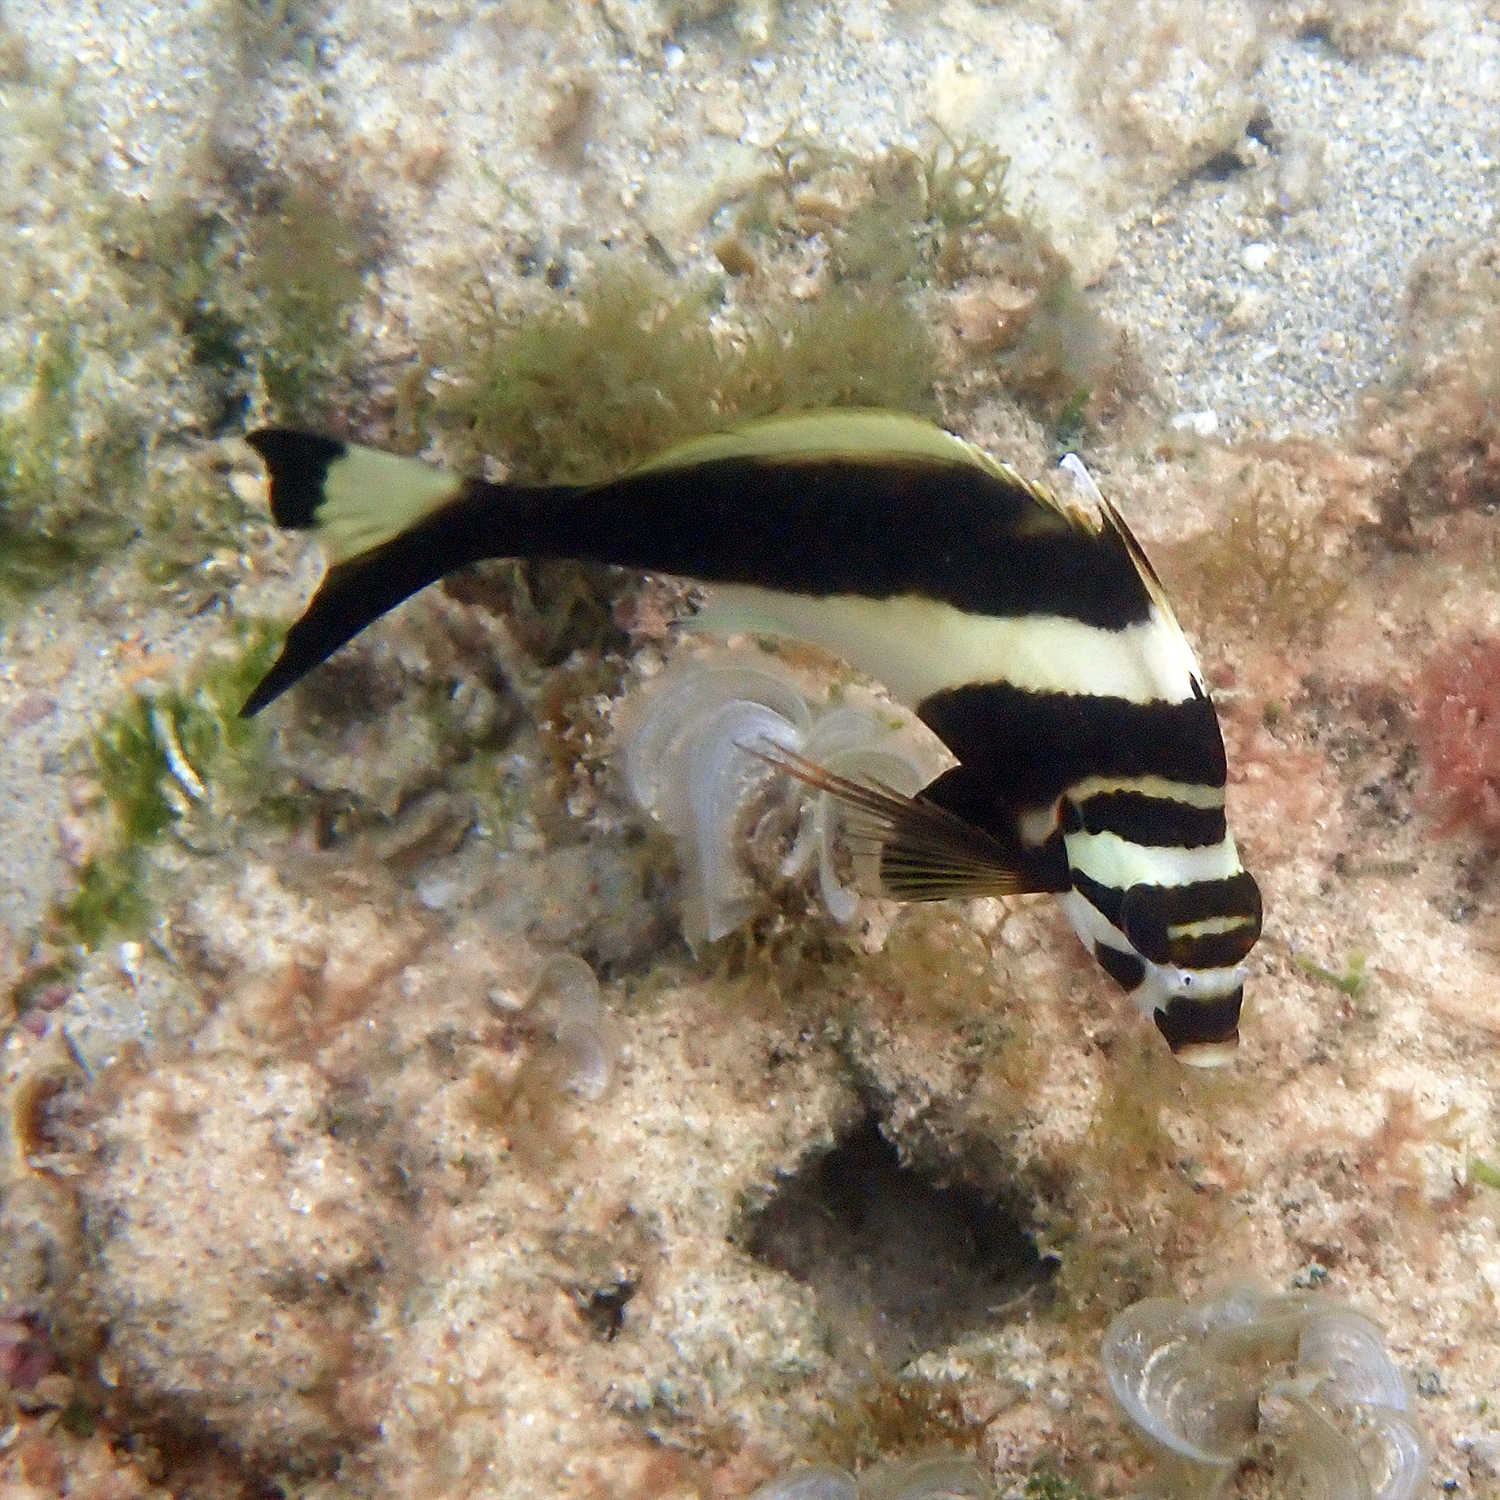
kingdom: Animalia
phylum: Chordata
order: Perciformes
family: Cheilodactylidae
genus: Cheilodactylus
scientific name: Cheilodactylus francisi
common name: Blacktip morwong
